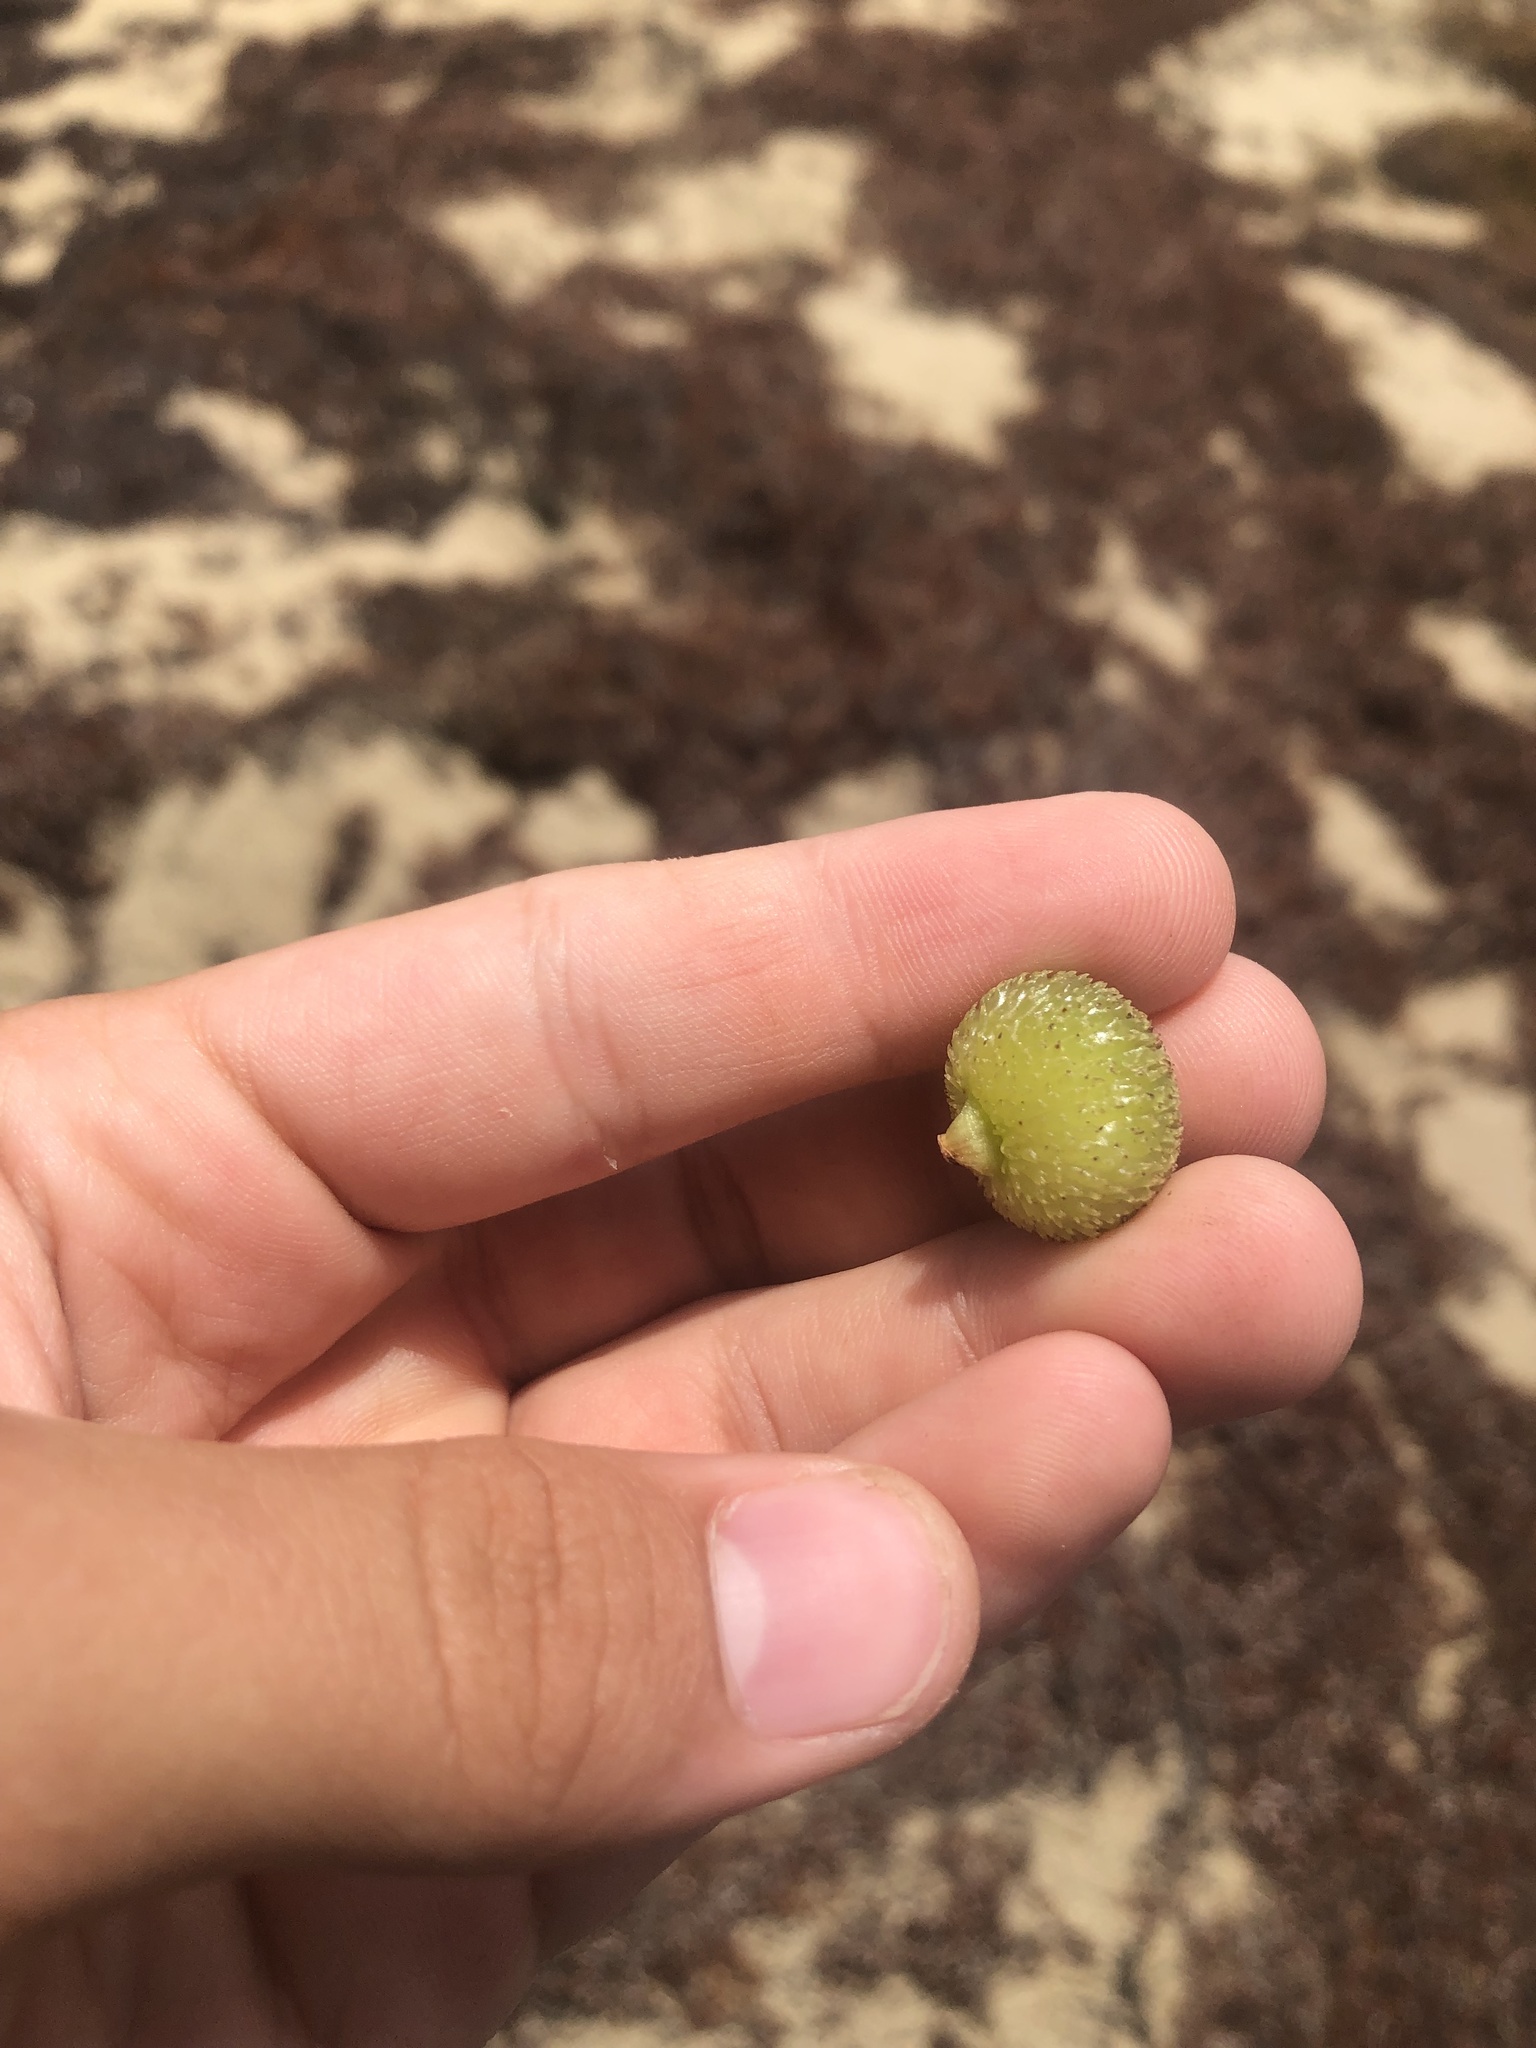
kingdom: Plantae
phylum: Tracheophyta
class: Liliopsida
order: Alismatales
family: Hydrocharitaceae
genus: Thalassia
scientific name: Thalassia testudinum
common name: Species code: tt
